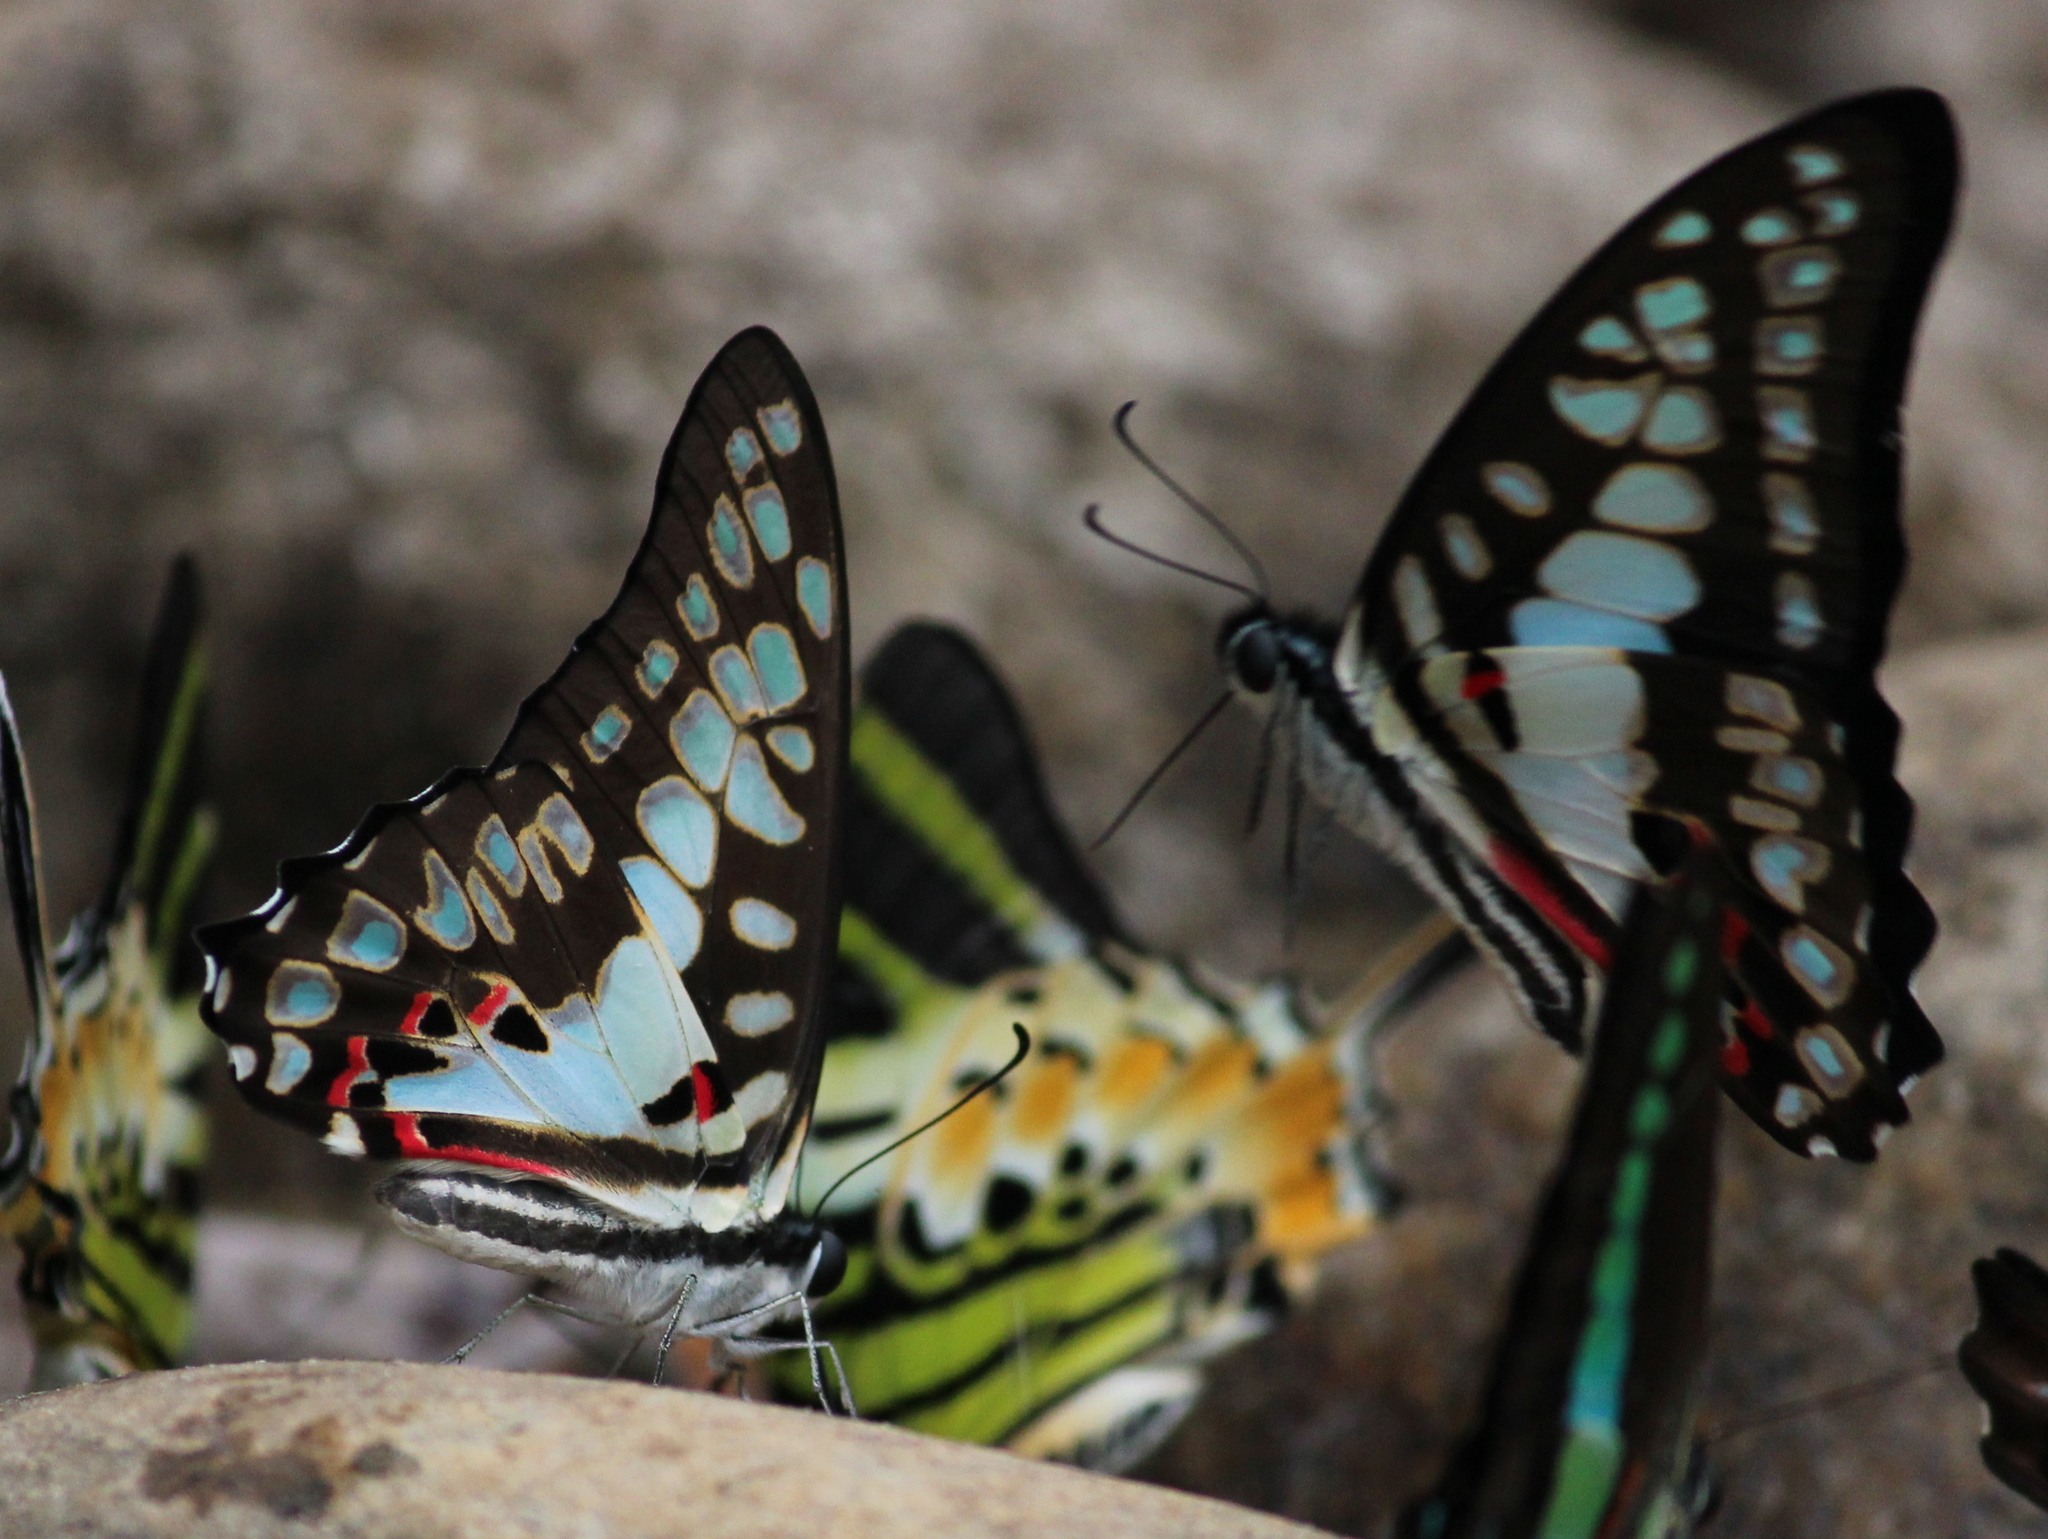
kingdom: Animalia
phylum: Arthropoda
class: Insecta
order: Lepidoptera
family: Papilionidae
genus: Graphium
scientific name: Graphium doson
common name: Common jay
